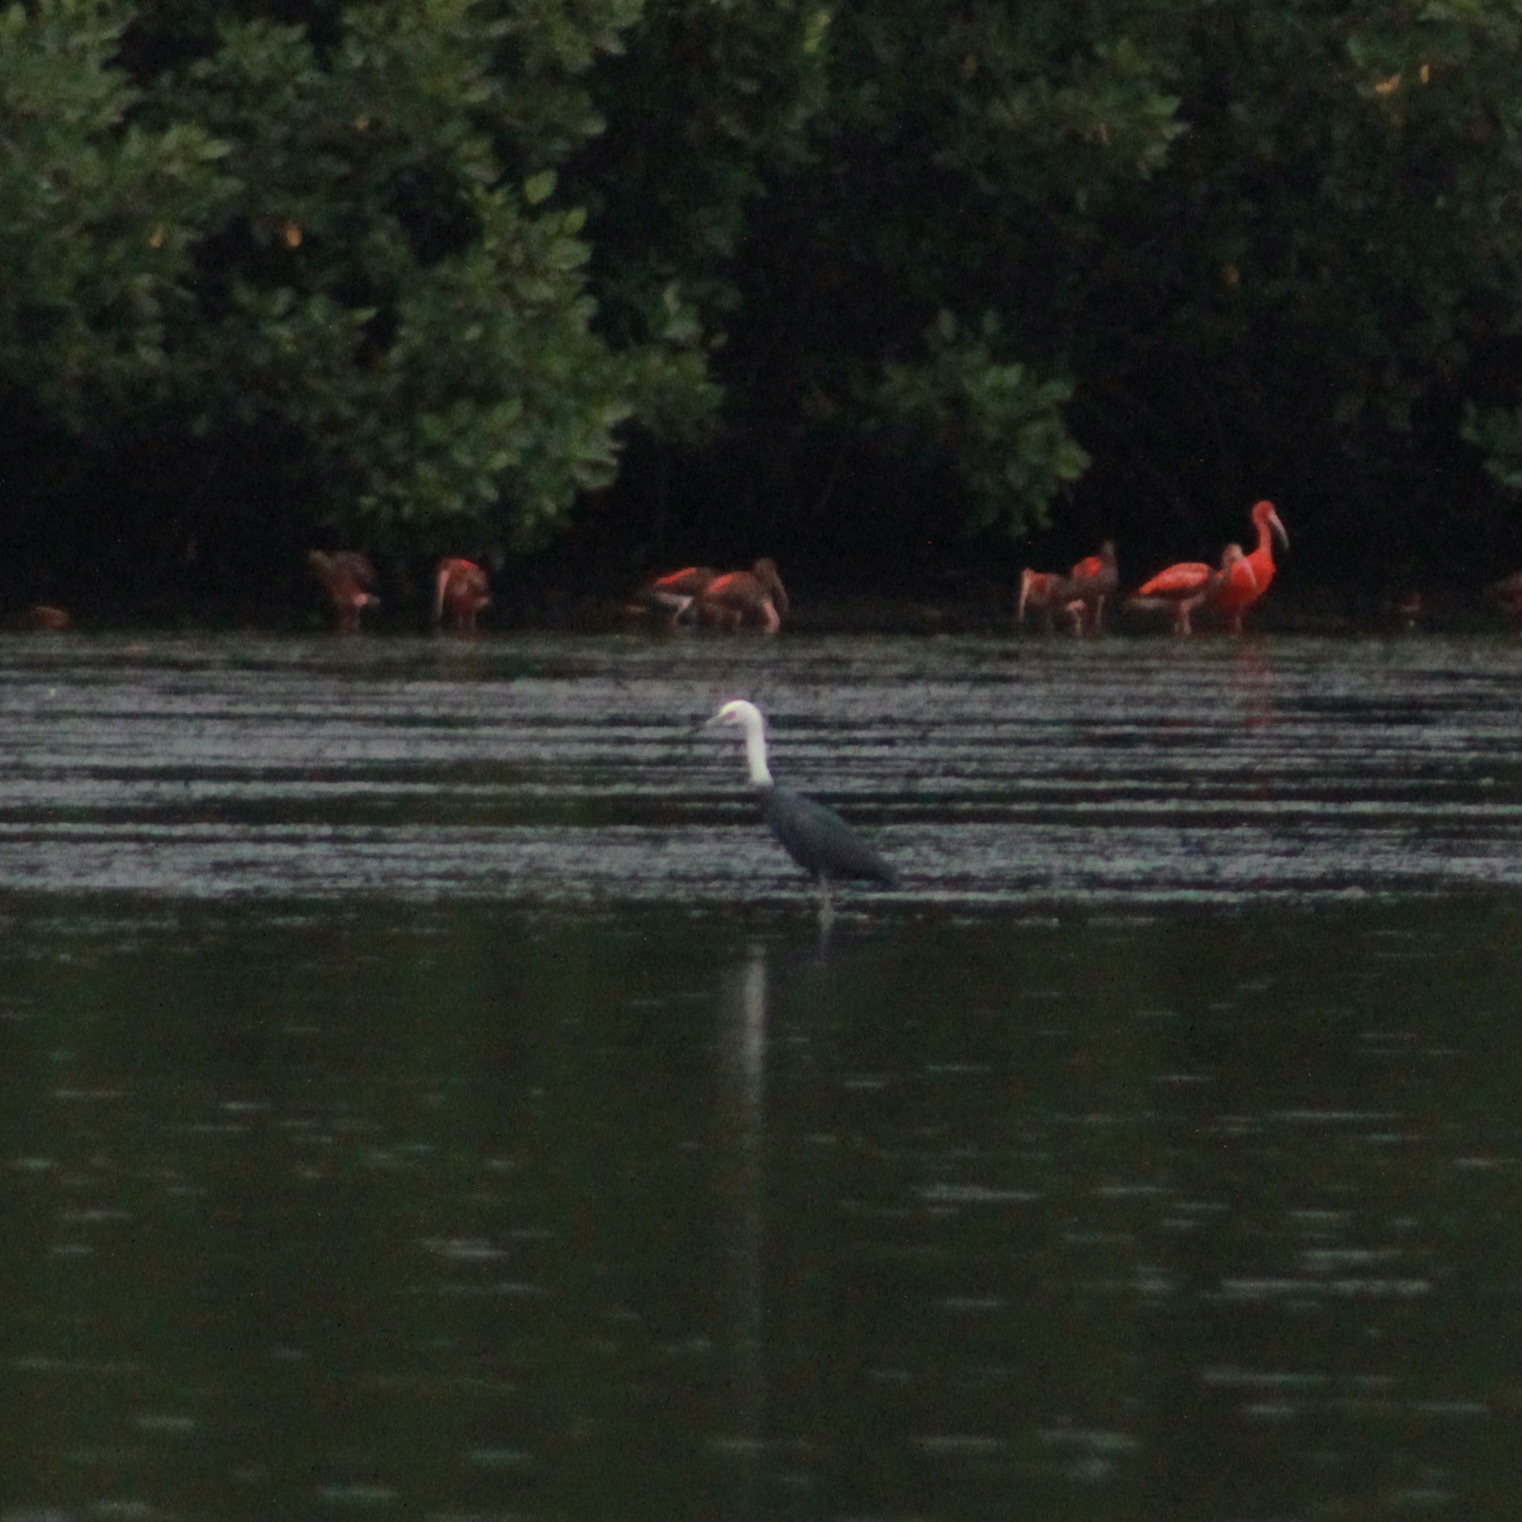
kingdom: Animalia
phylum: Chordata
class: Aves
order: Pelecaniformes
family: Ardeidae
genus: Egretta
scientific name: Egretta caerulea
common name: Little blue heron
